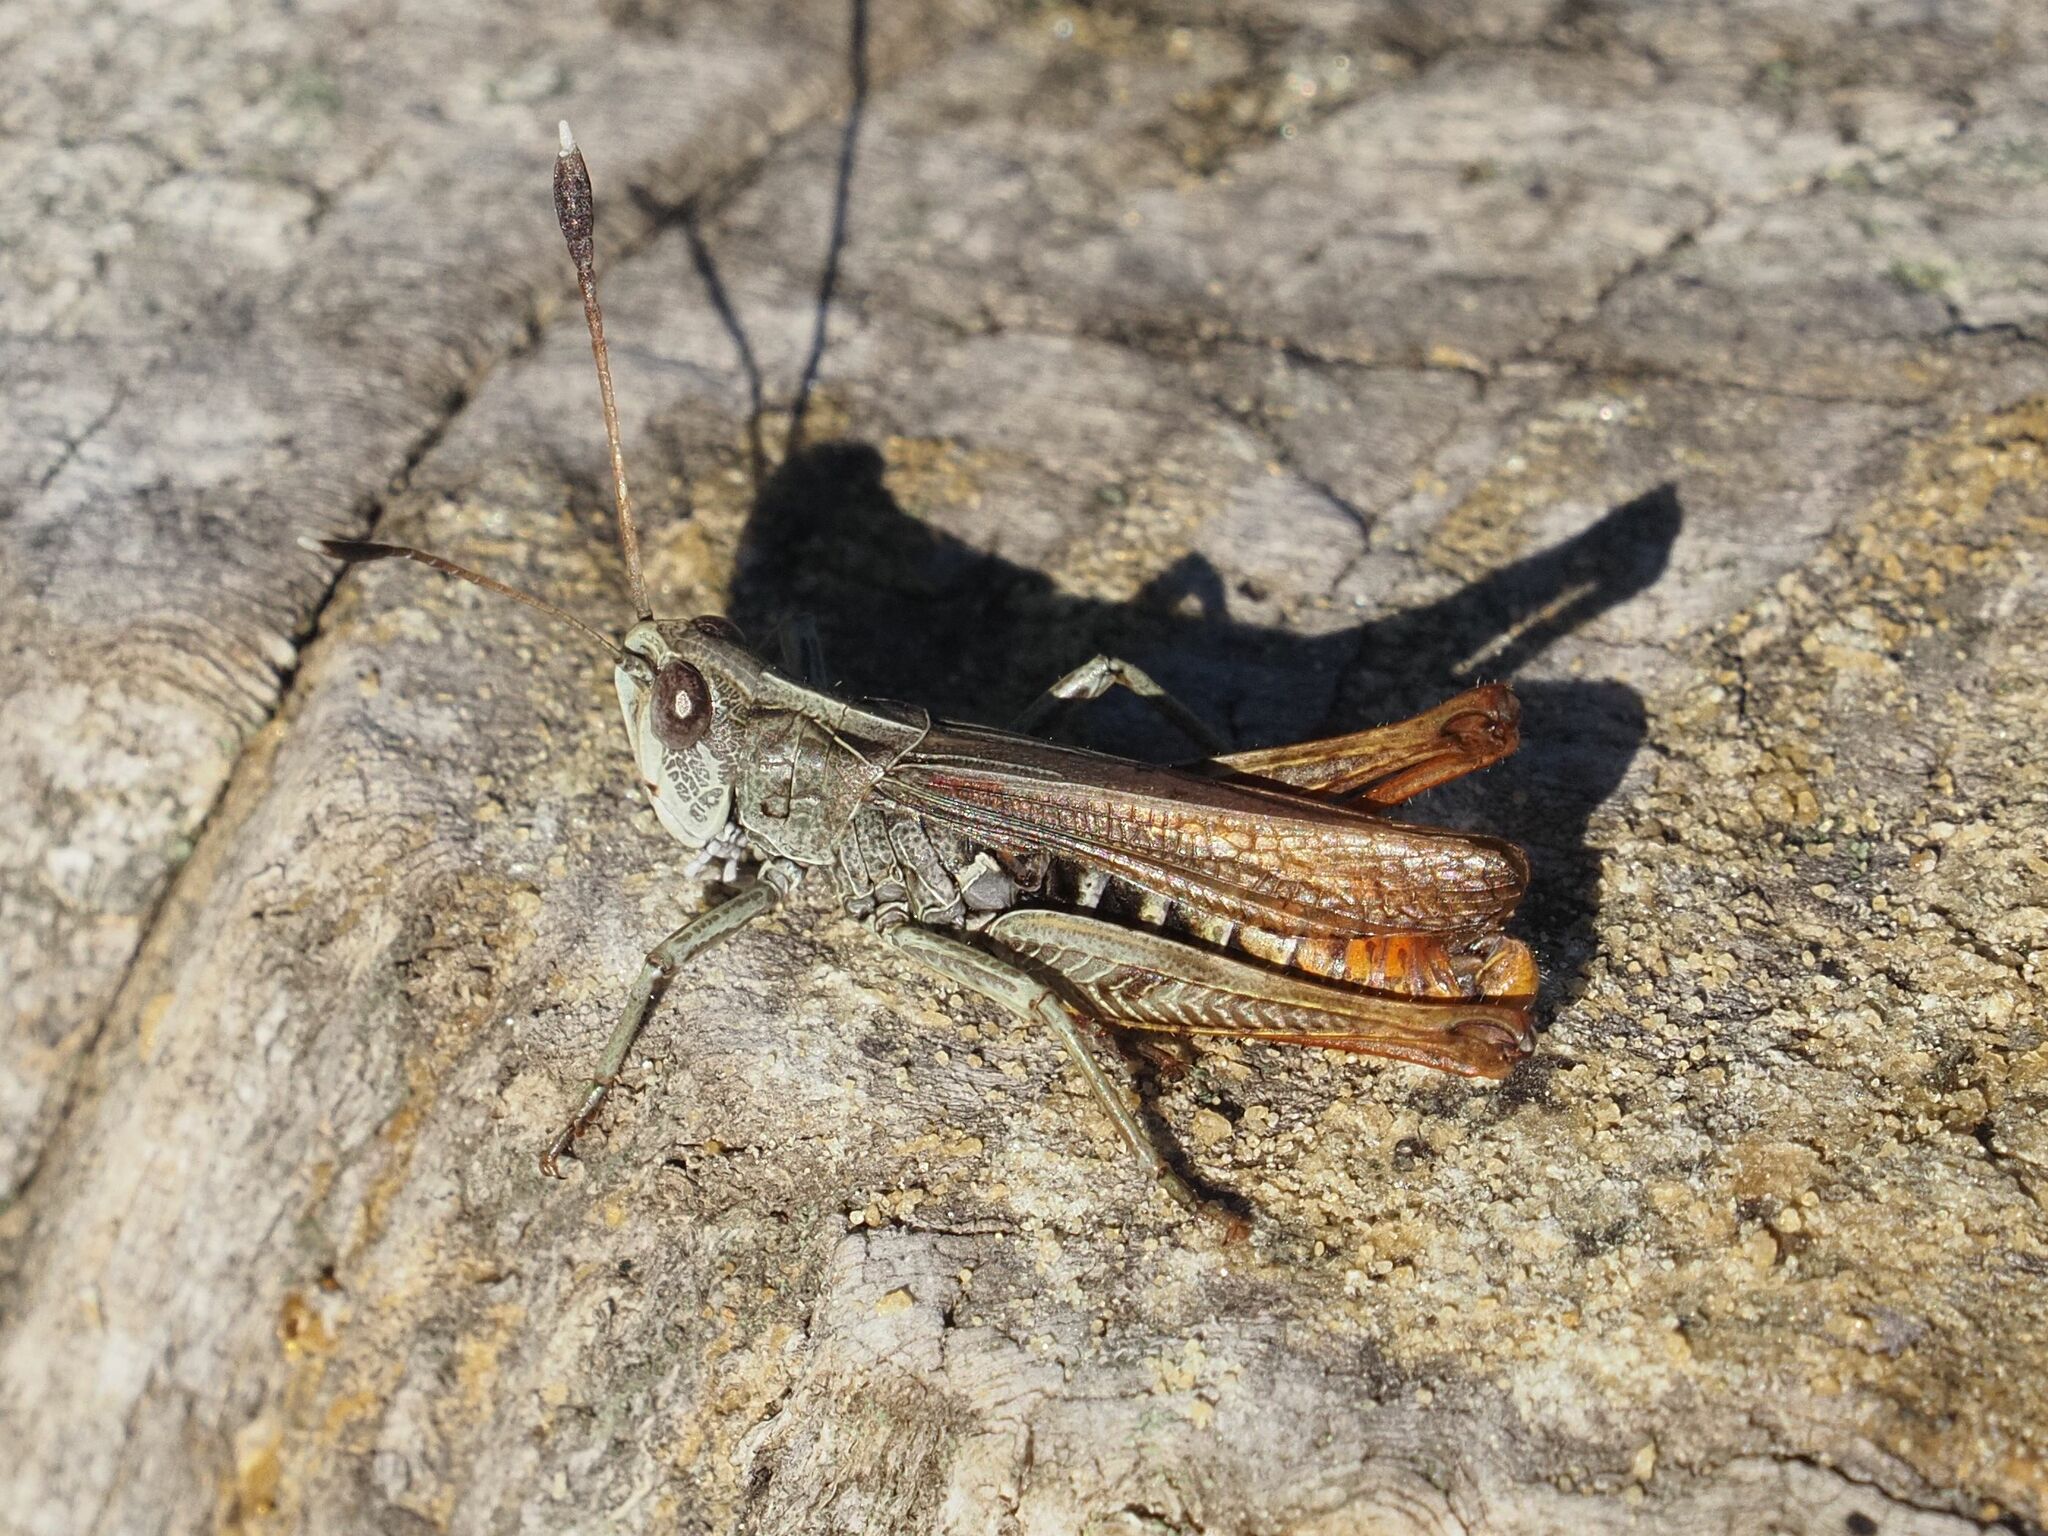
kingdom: Animalia
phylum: Arthropoda
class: Insecta
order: Orthoptera
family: Acrididae
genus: Gomphocerippus
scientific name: Gomphocerippus rufus
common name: Rufous grasshopper
